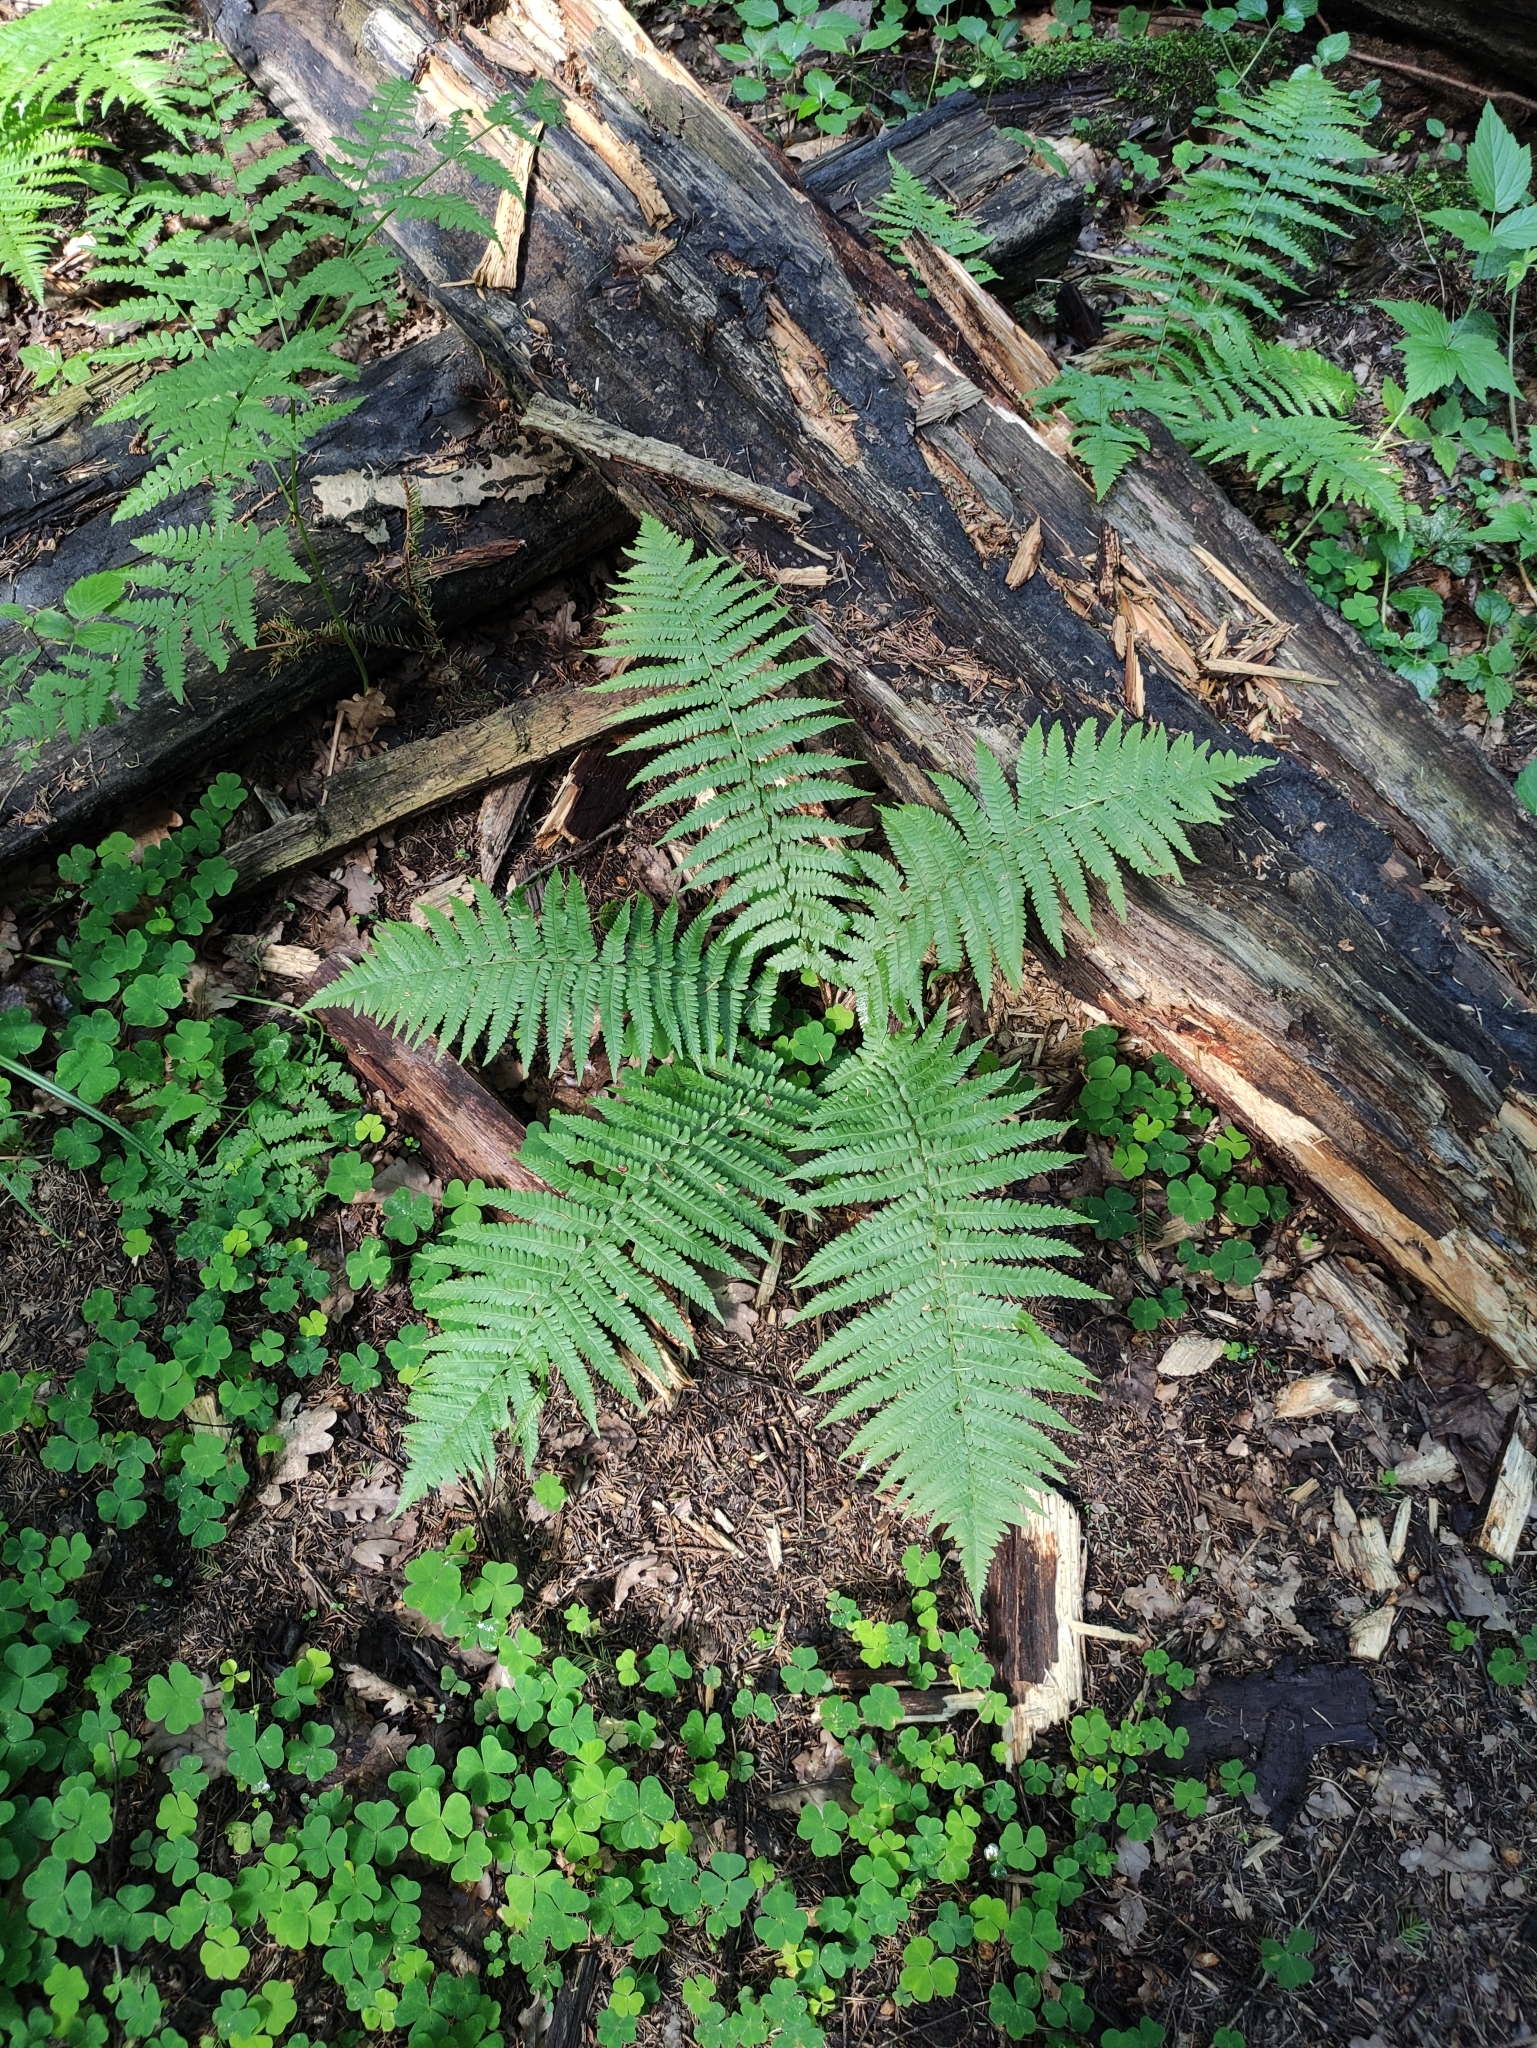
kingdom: Plantae
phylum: Tracheophyta
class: Polypodiopsida
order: Polypodiales
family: Dryopteridaceae
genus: Dryopteris
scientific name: Dryopteris filix-mas
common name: Male fern
